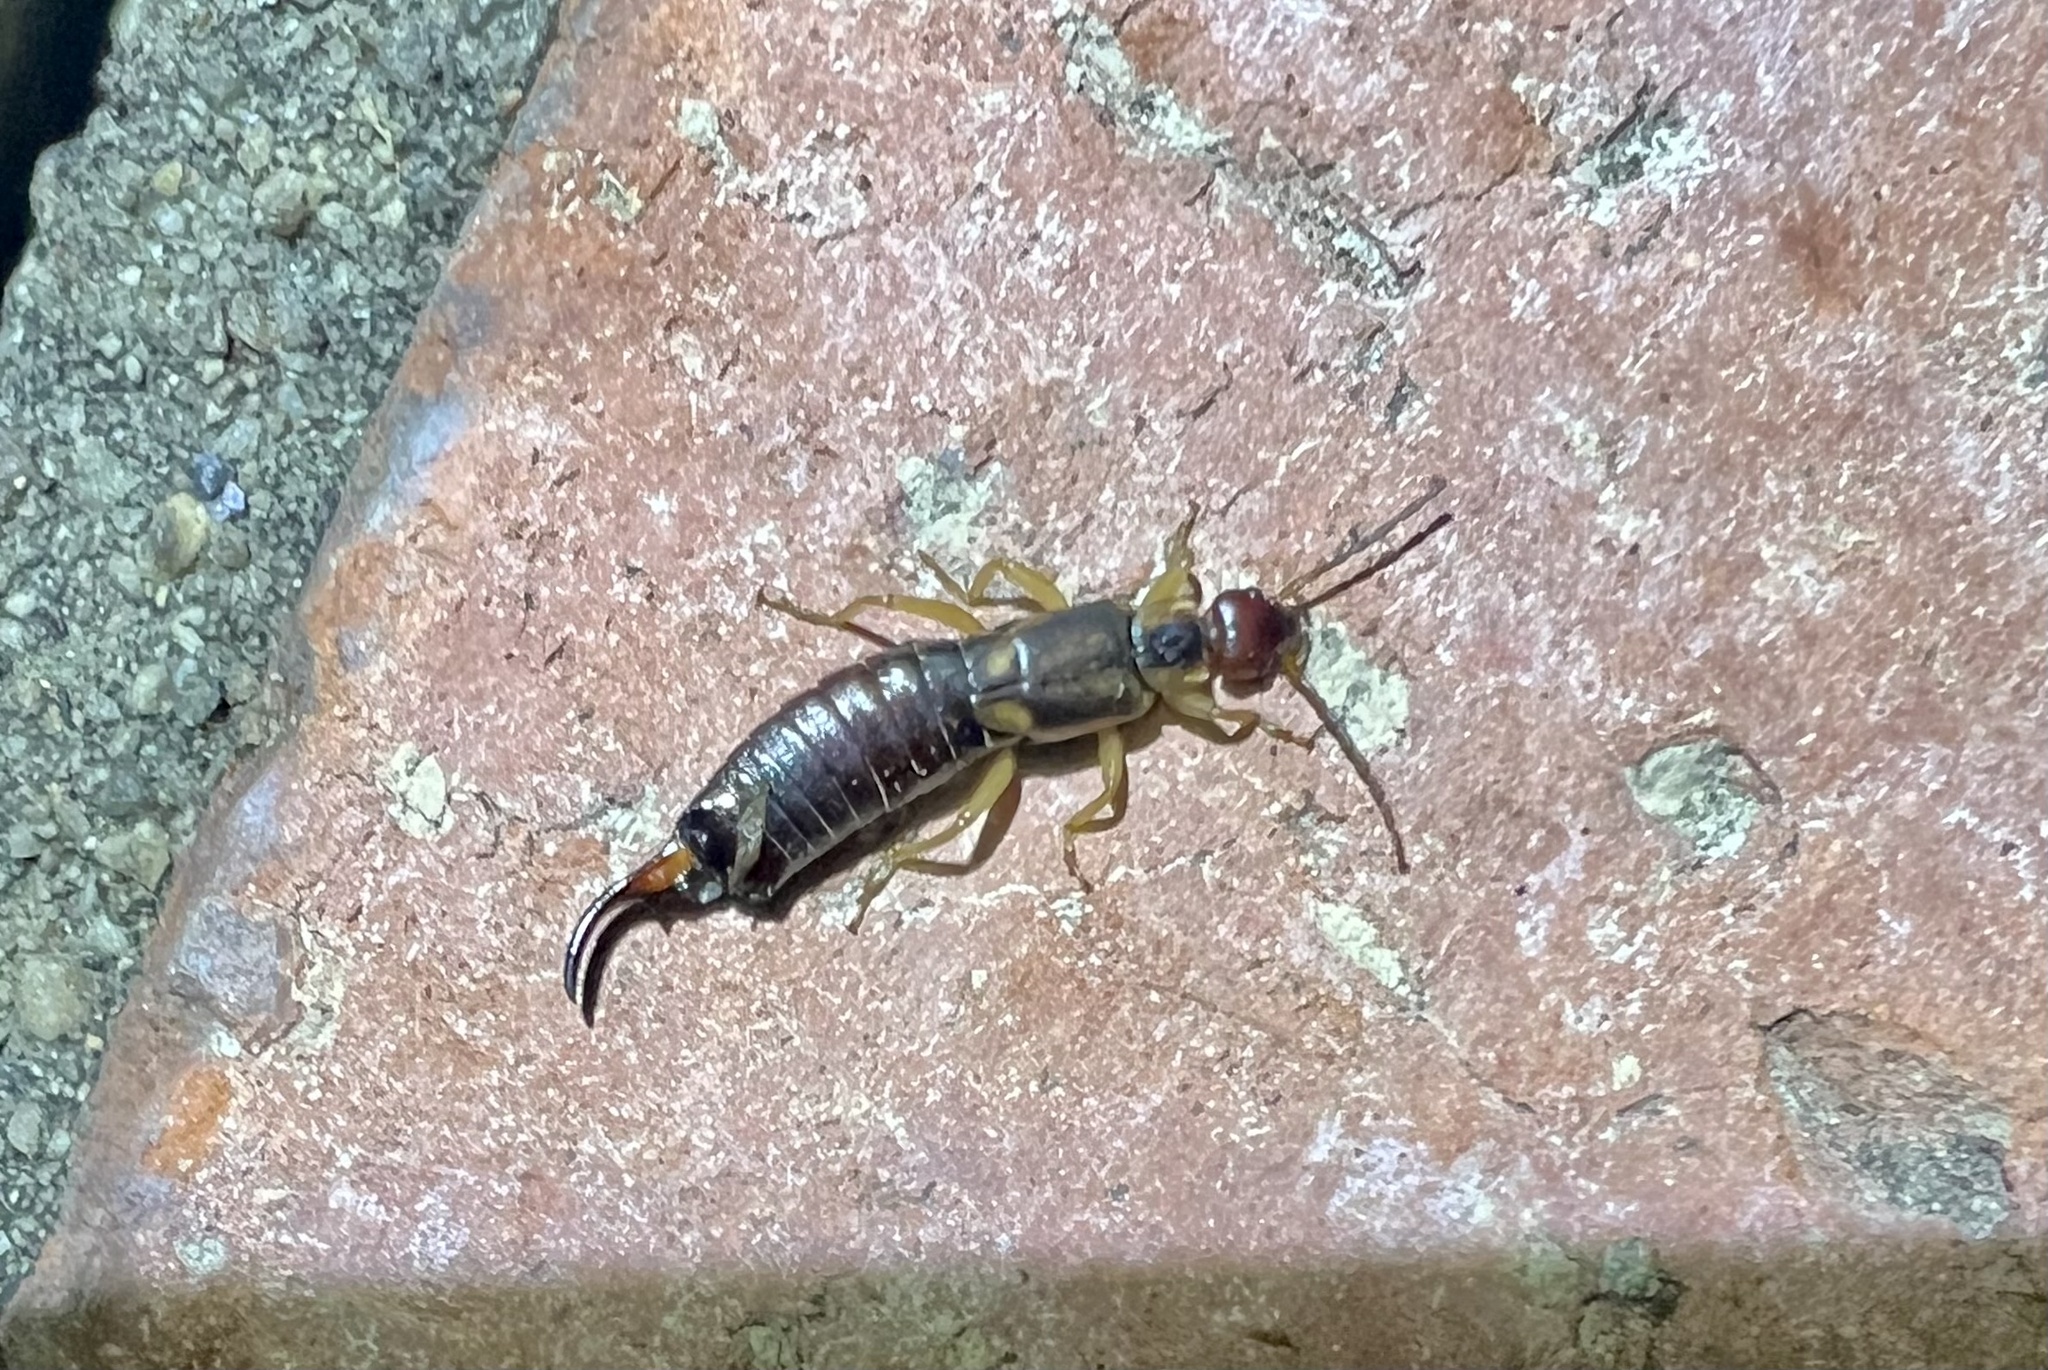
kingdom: Animalia
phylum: Arthropoda
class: Insecta
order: Dermaptera
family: Forficulidae
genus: Forficula
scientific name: Forficula
